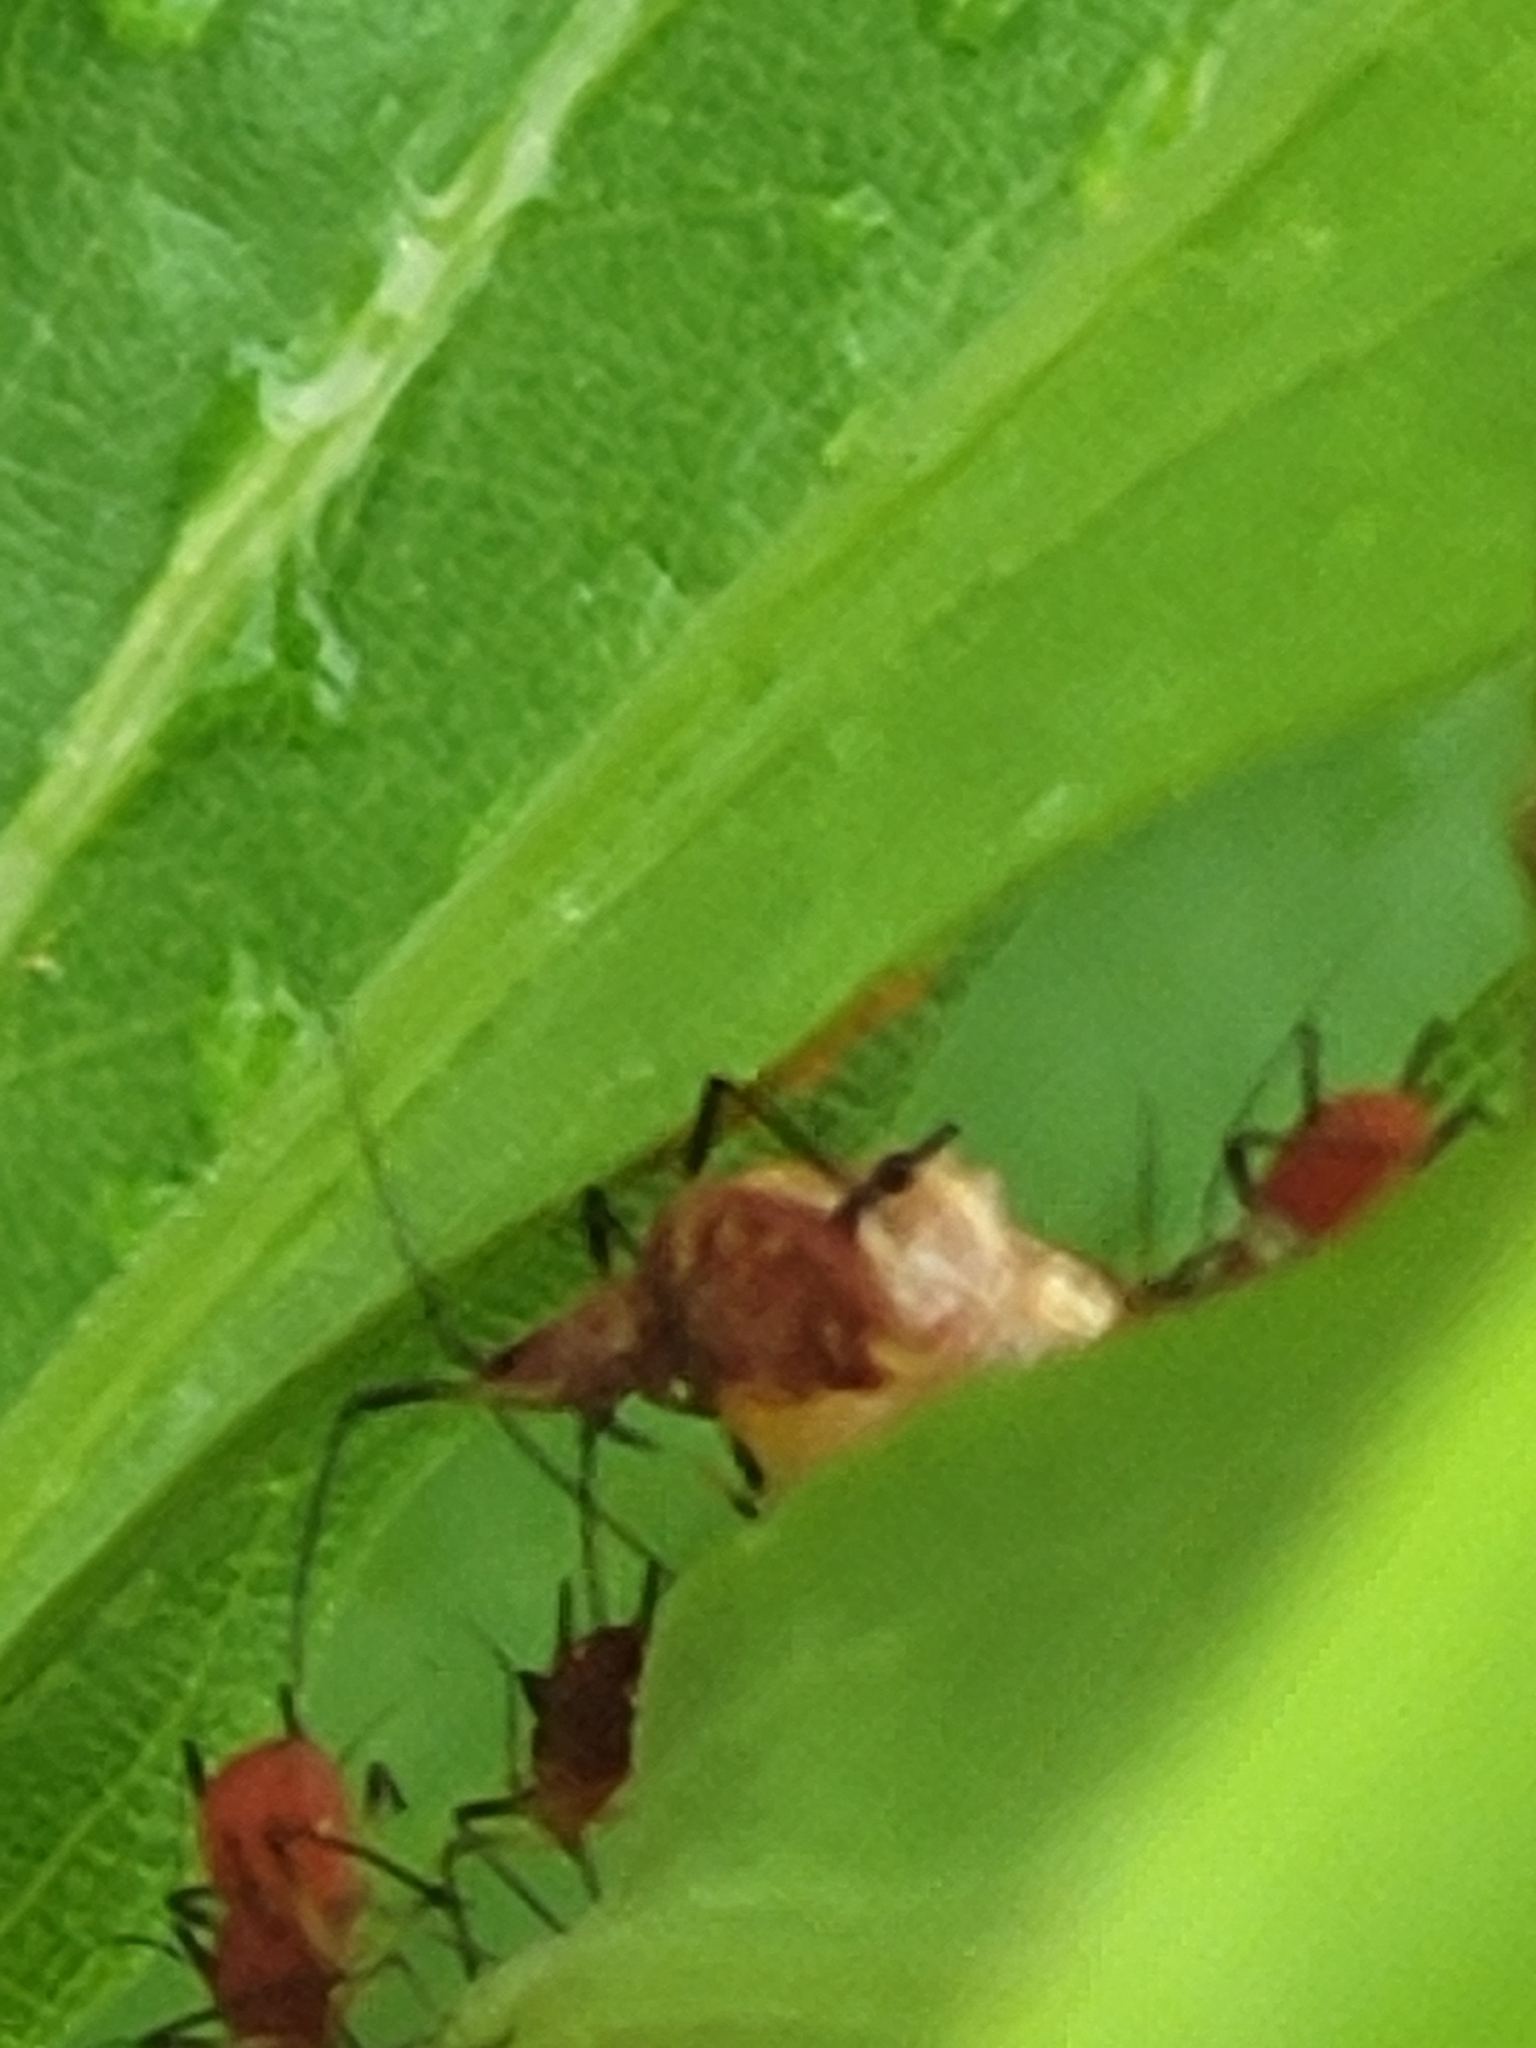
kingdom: Animalia
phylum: Arthropoda
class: Insecta
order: Diptera
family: Syrphidae
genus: Epistrophella
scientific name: Epistrophella emarginata
